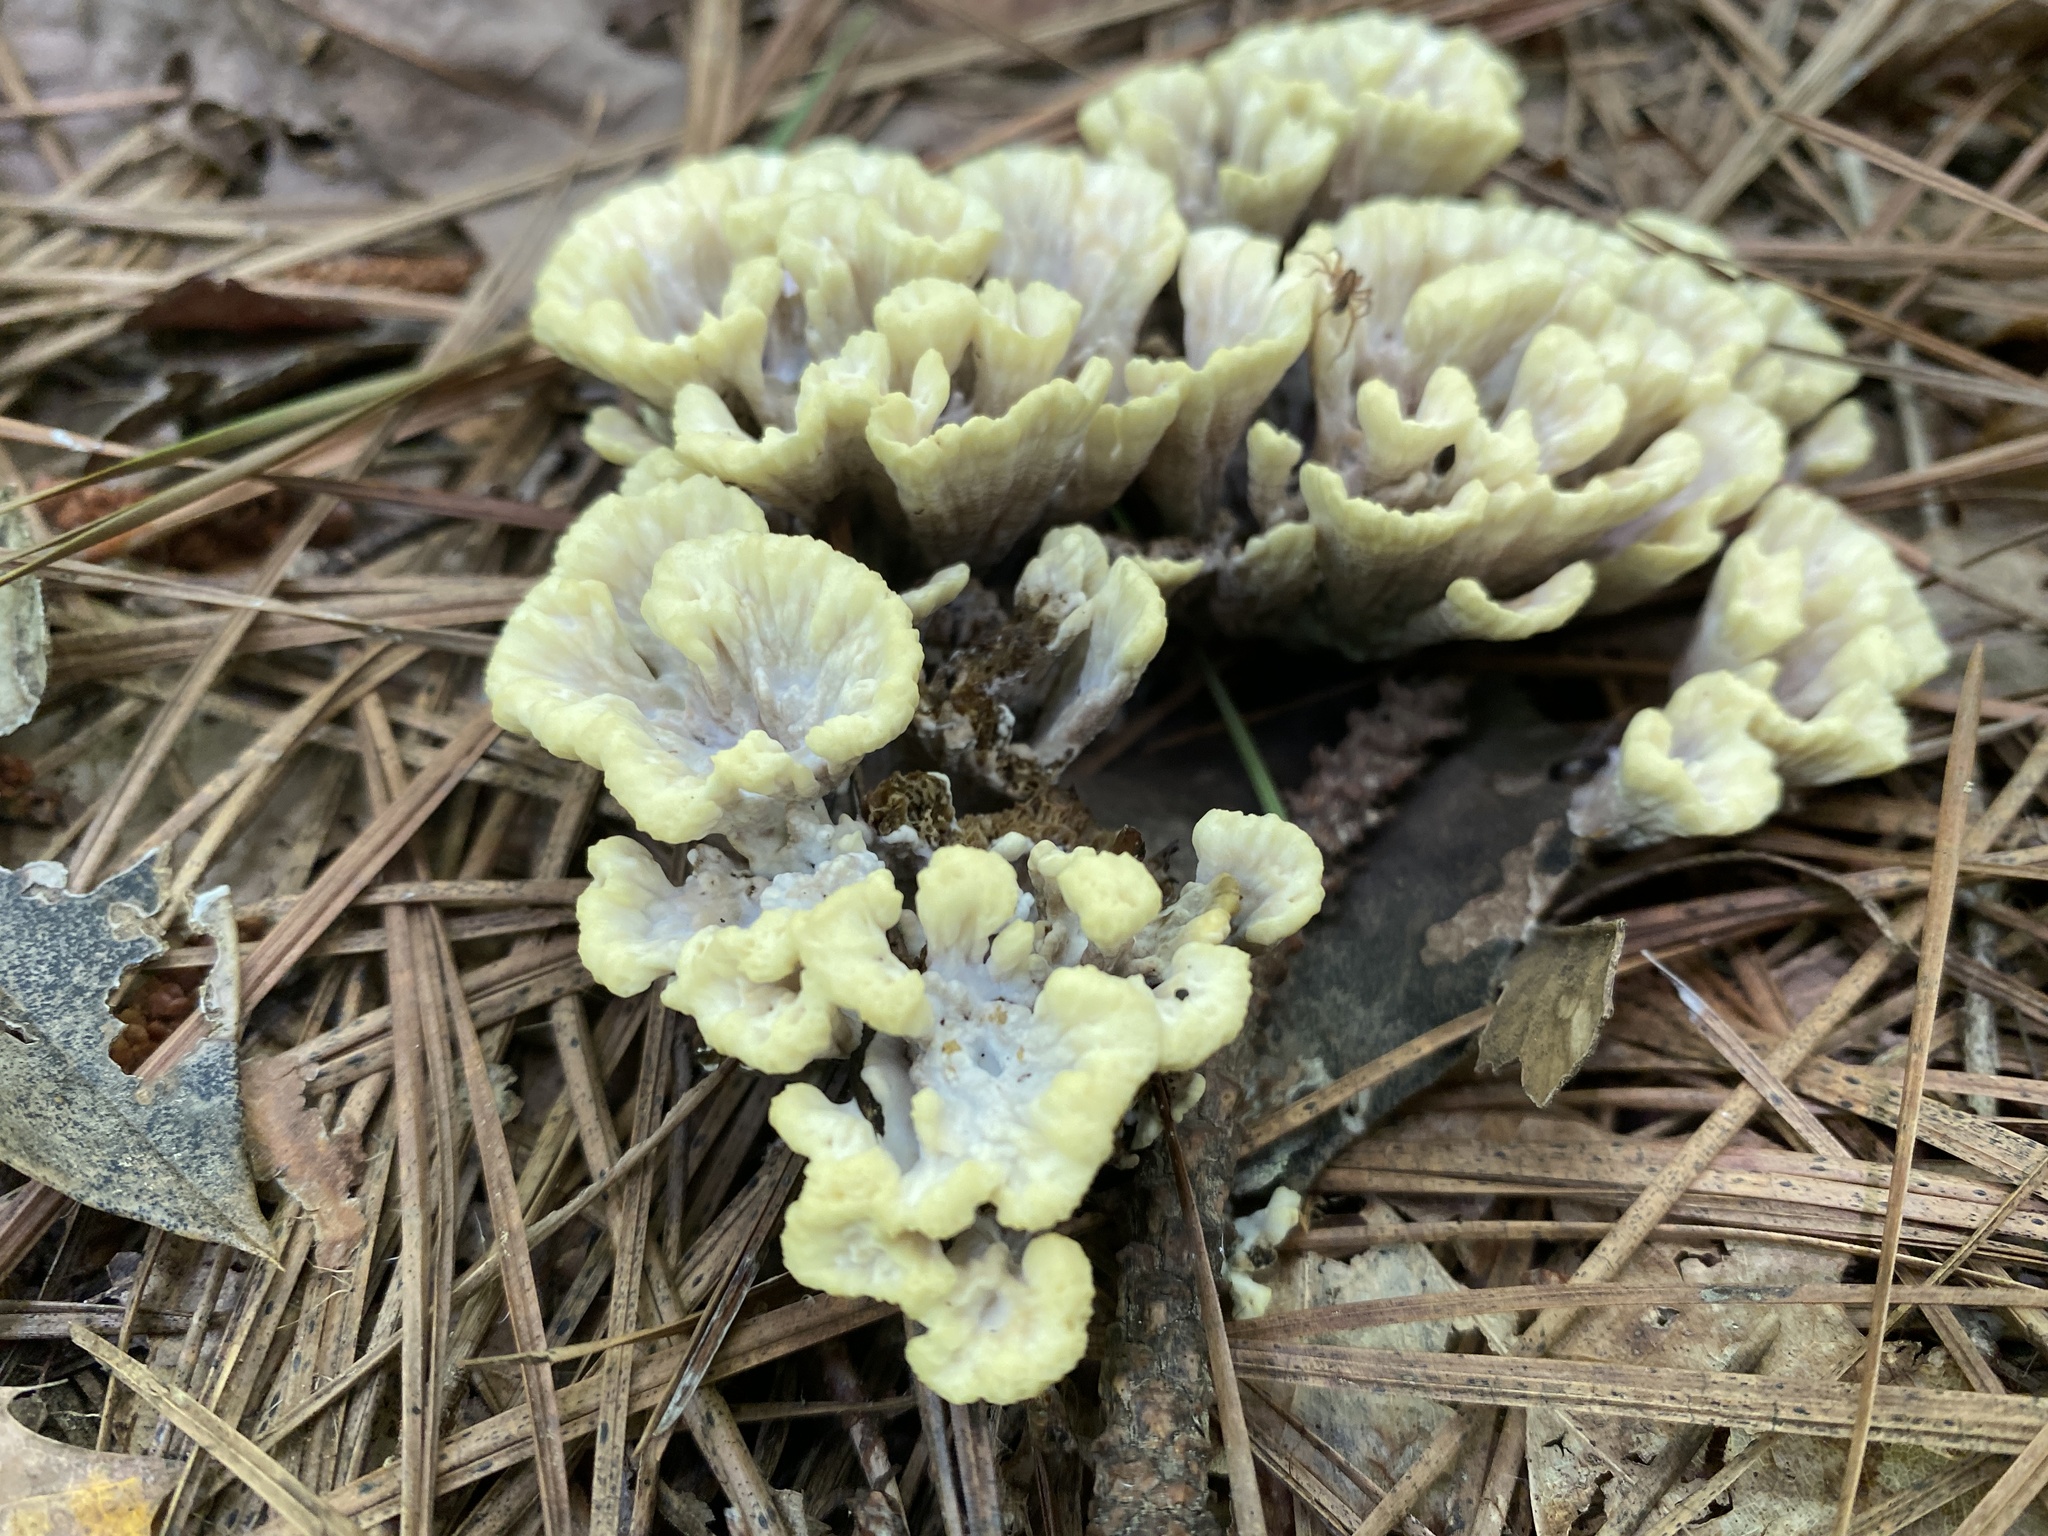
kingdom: Fungi
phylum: Basidiomycota
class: Agaricomycetes
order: Thelephorales
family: Thelephoraceae
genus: Thelephora
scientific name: Thelephora vialis
